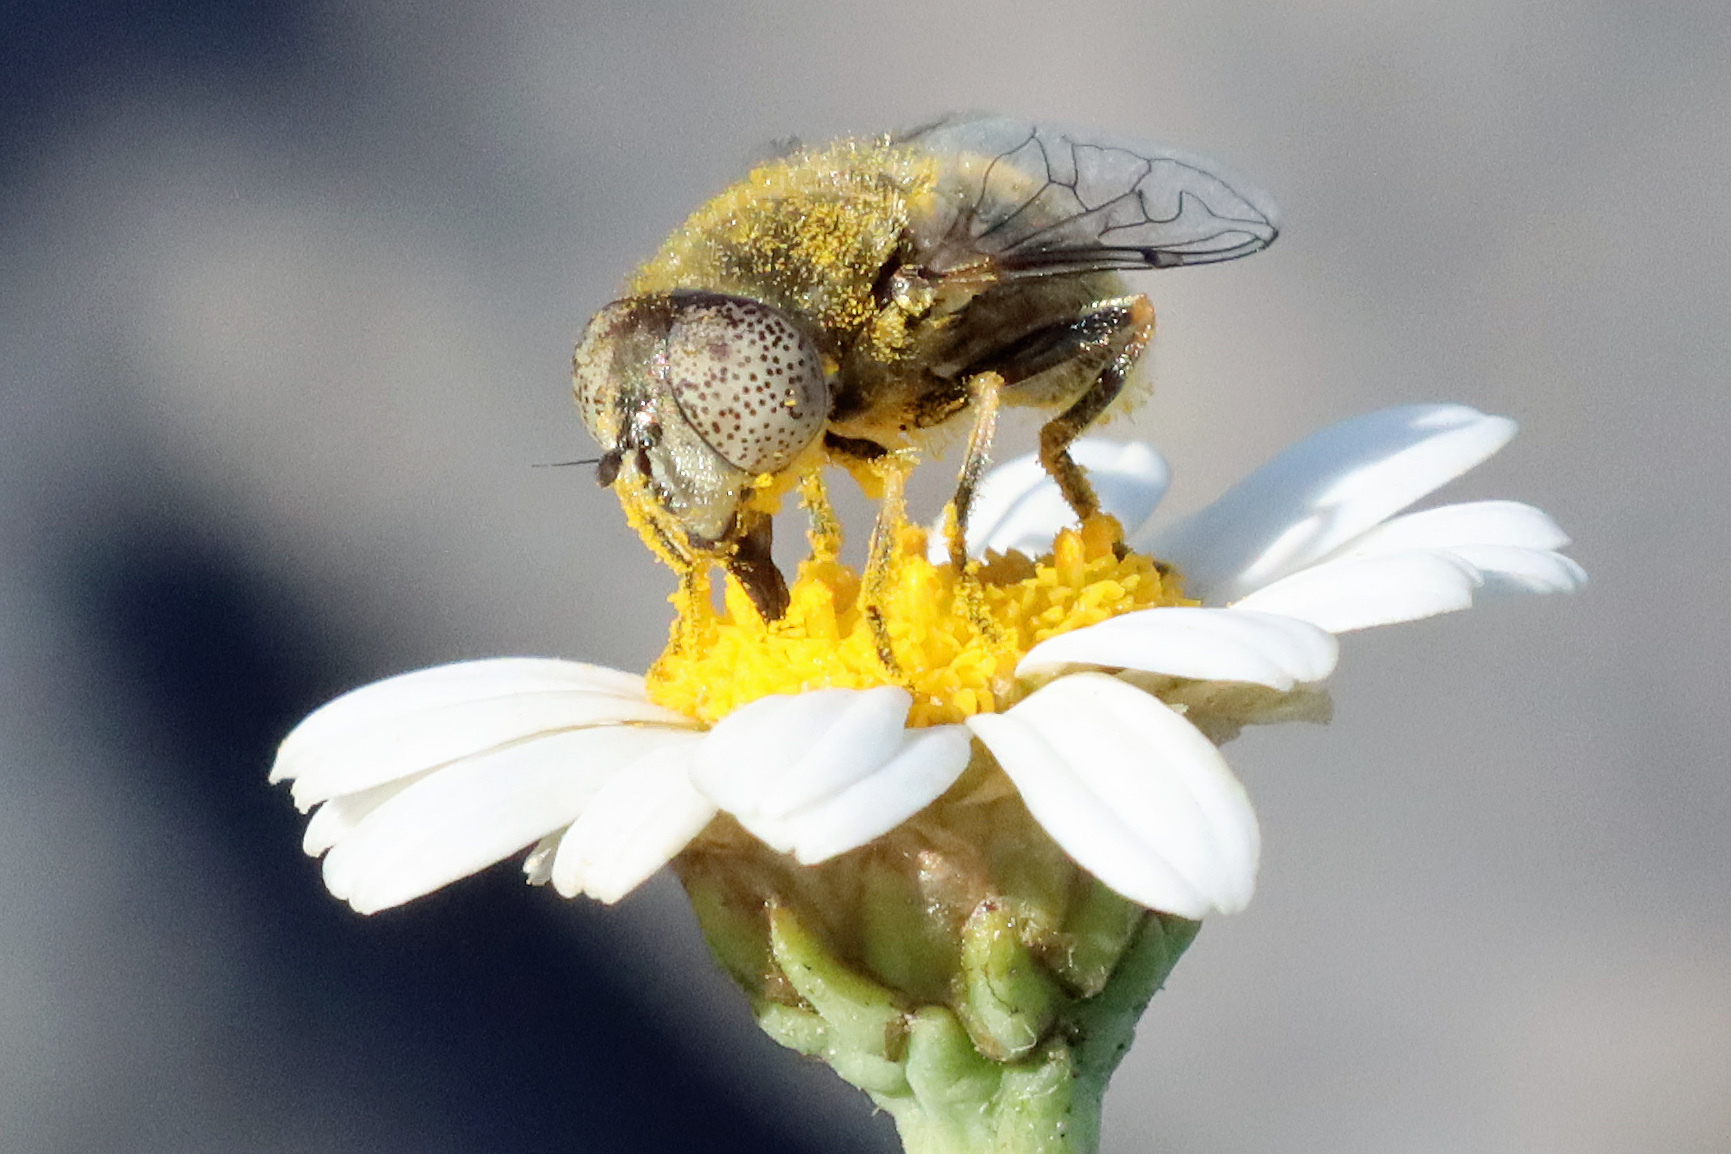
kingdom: Animalia
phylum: Arthropoda
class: Insecta
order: Diptera
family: Syrphidae
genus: Eristalinus
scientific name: Eristalinus aeneus
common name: Syrphid fly
